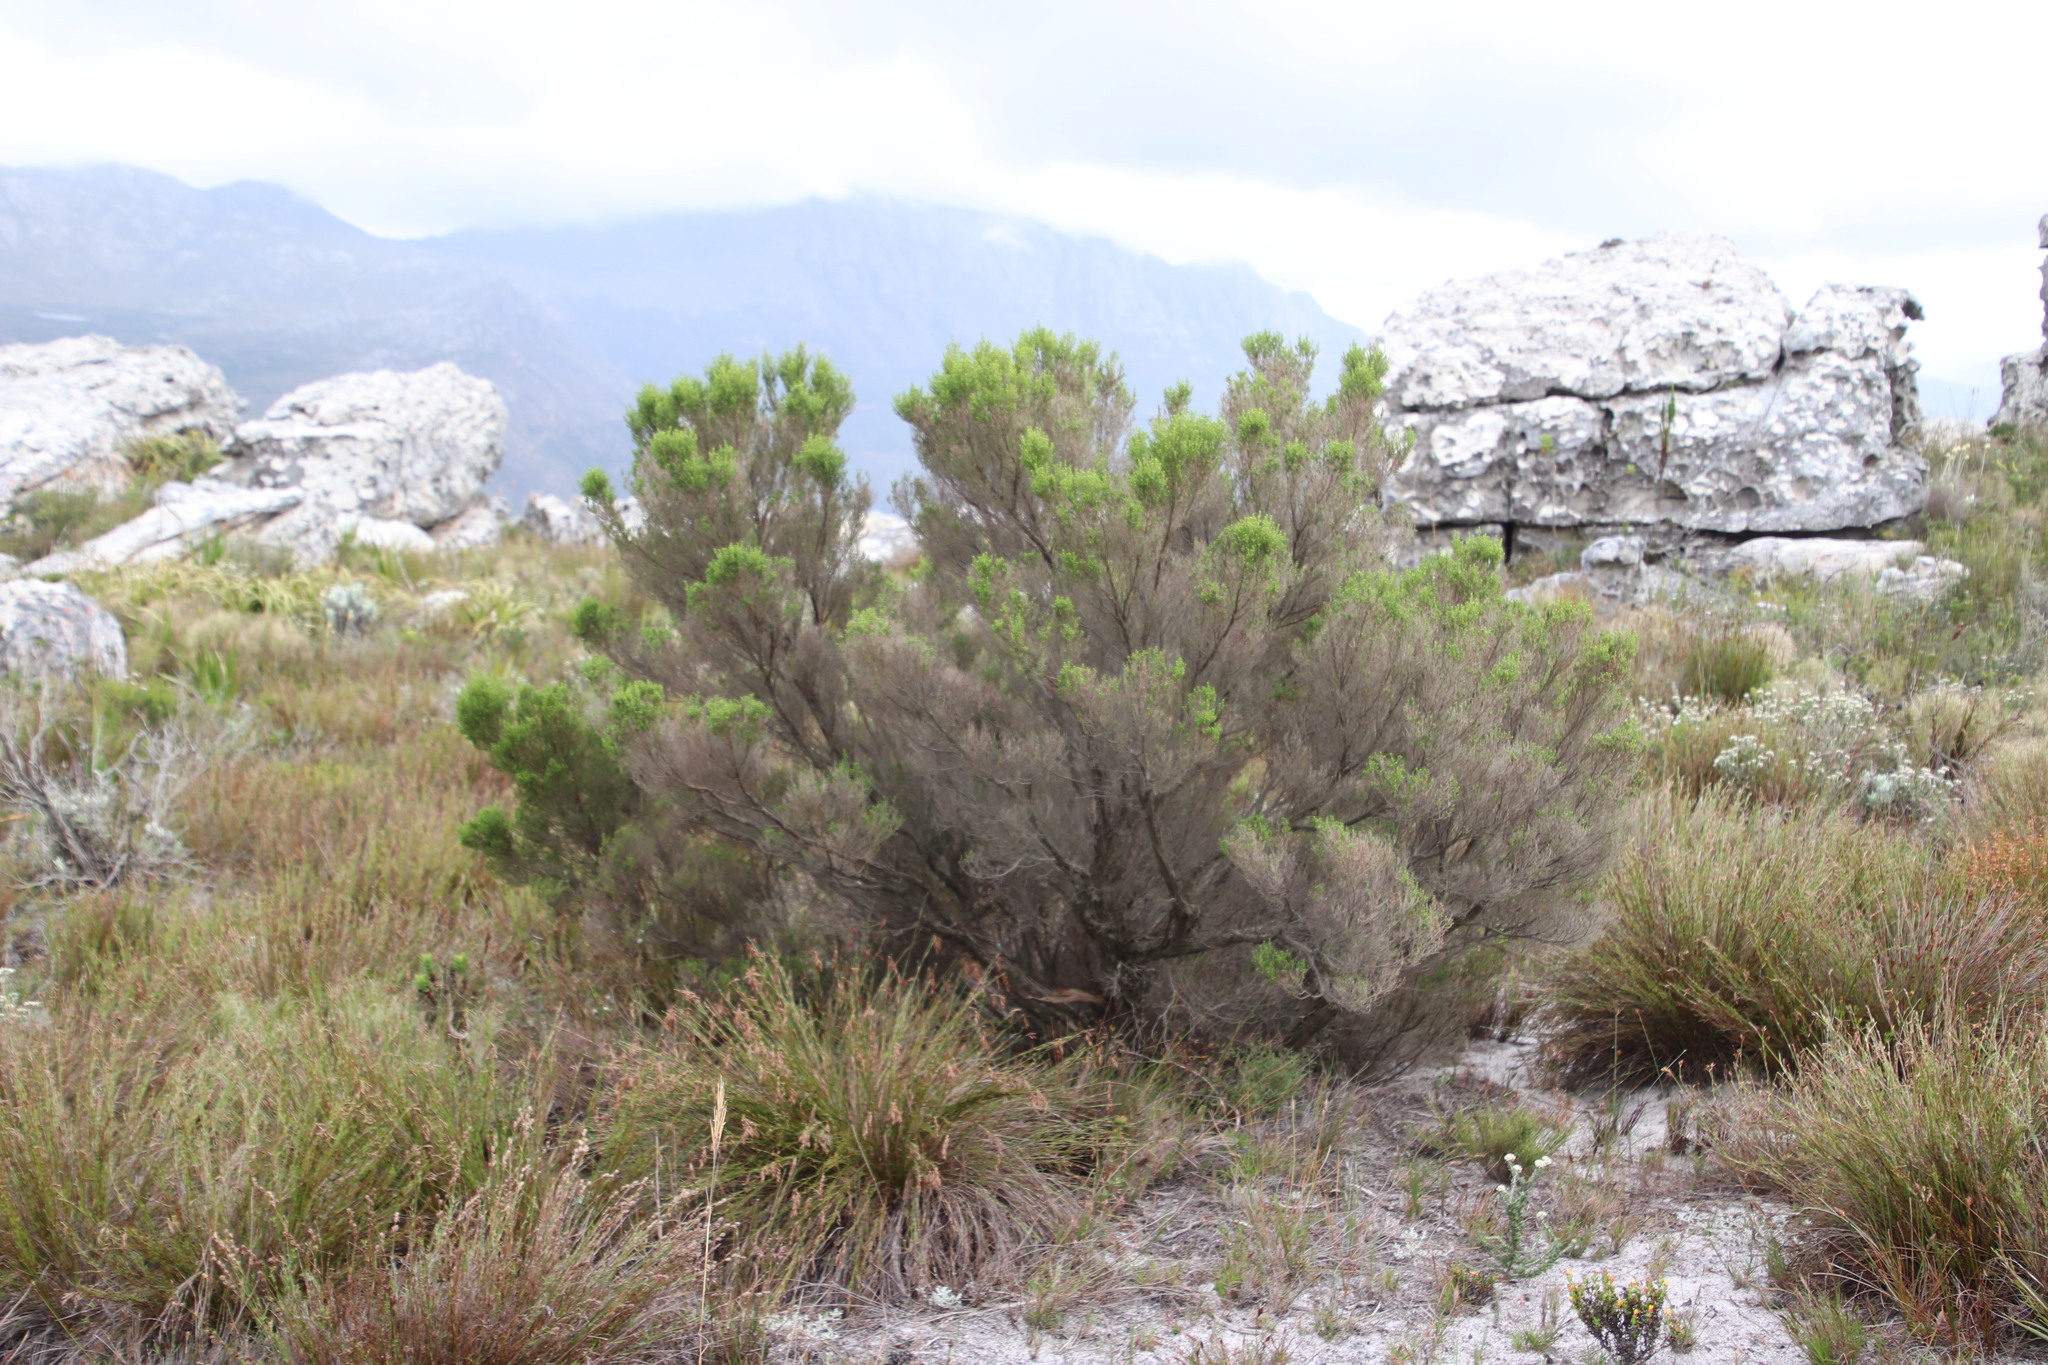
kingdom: Plantae
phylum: Tracheophyta
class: Magnoliopsida
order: Ericales
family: Ericaceae
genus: Erica
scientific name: Erica tristis
